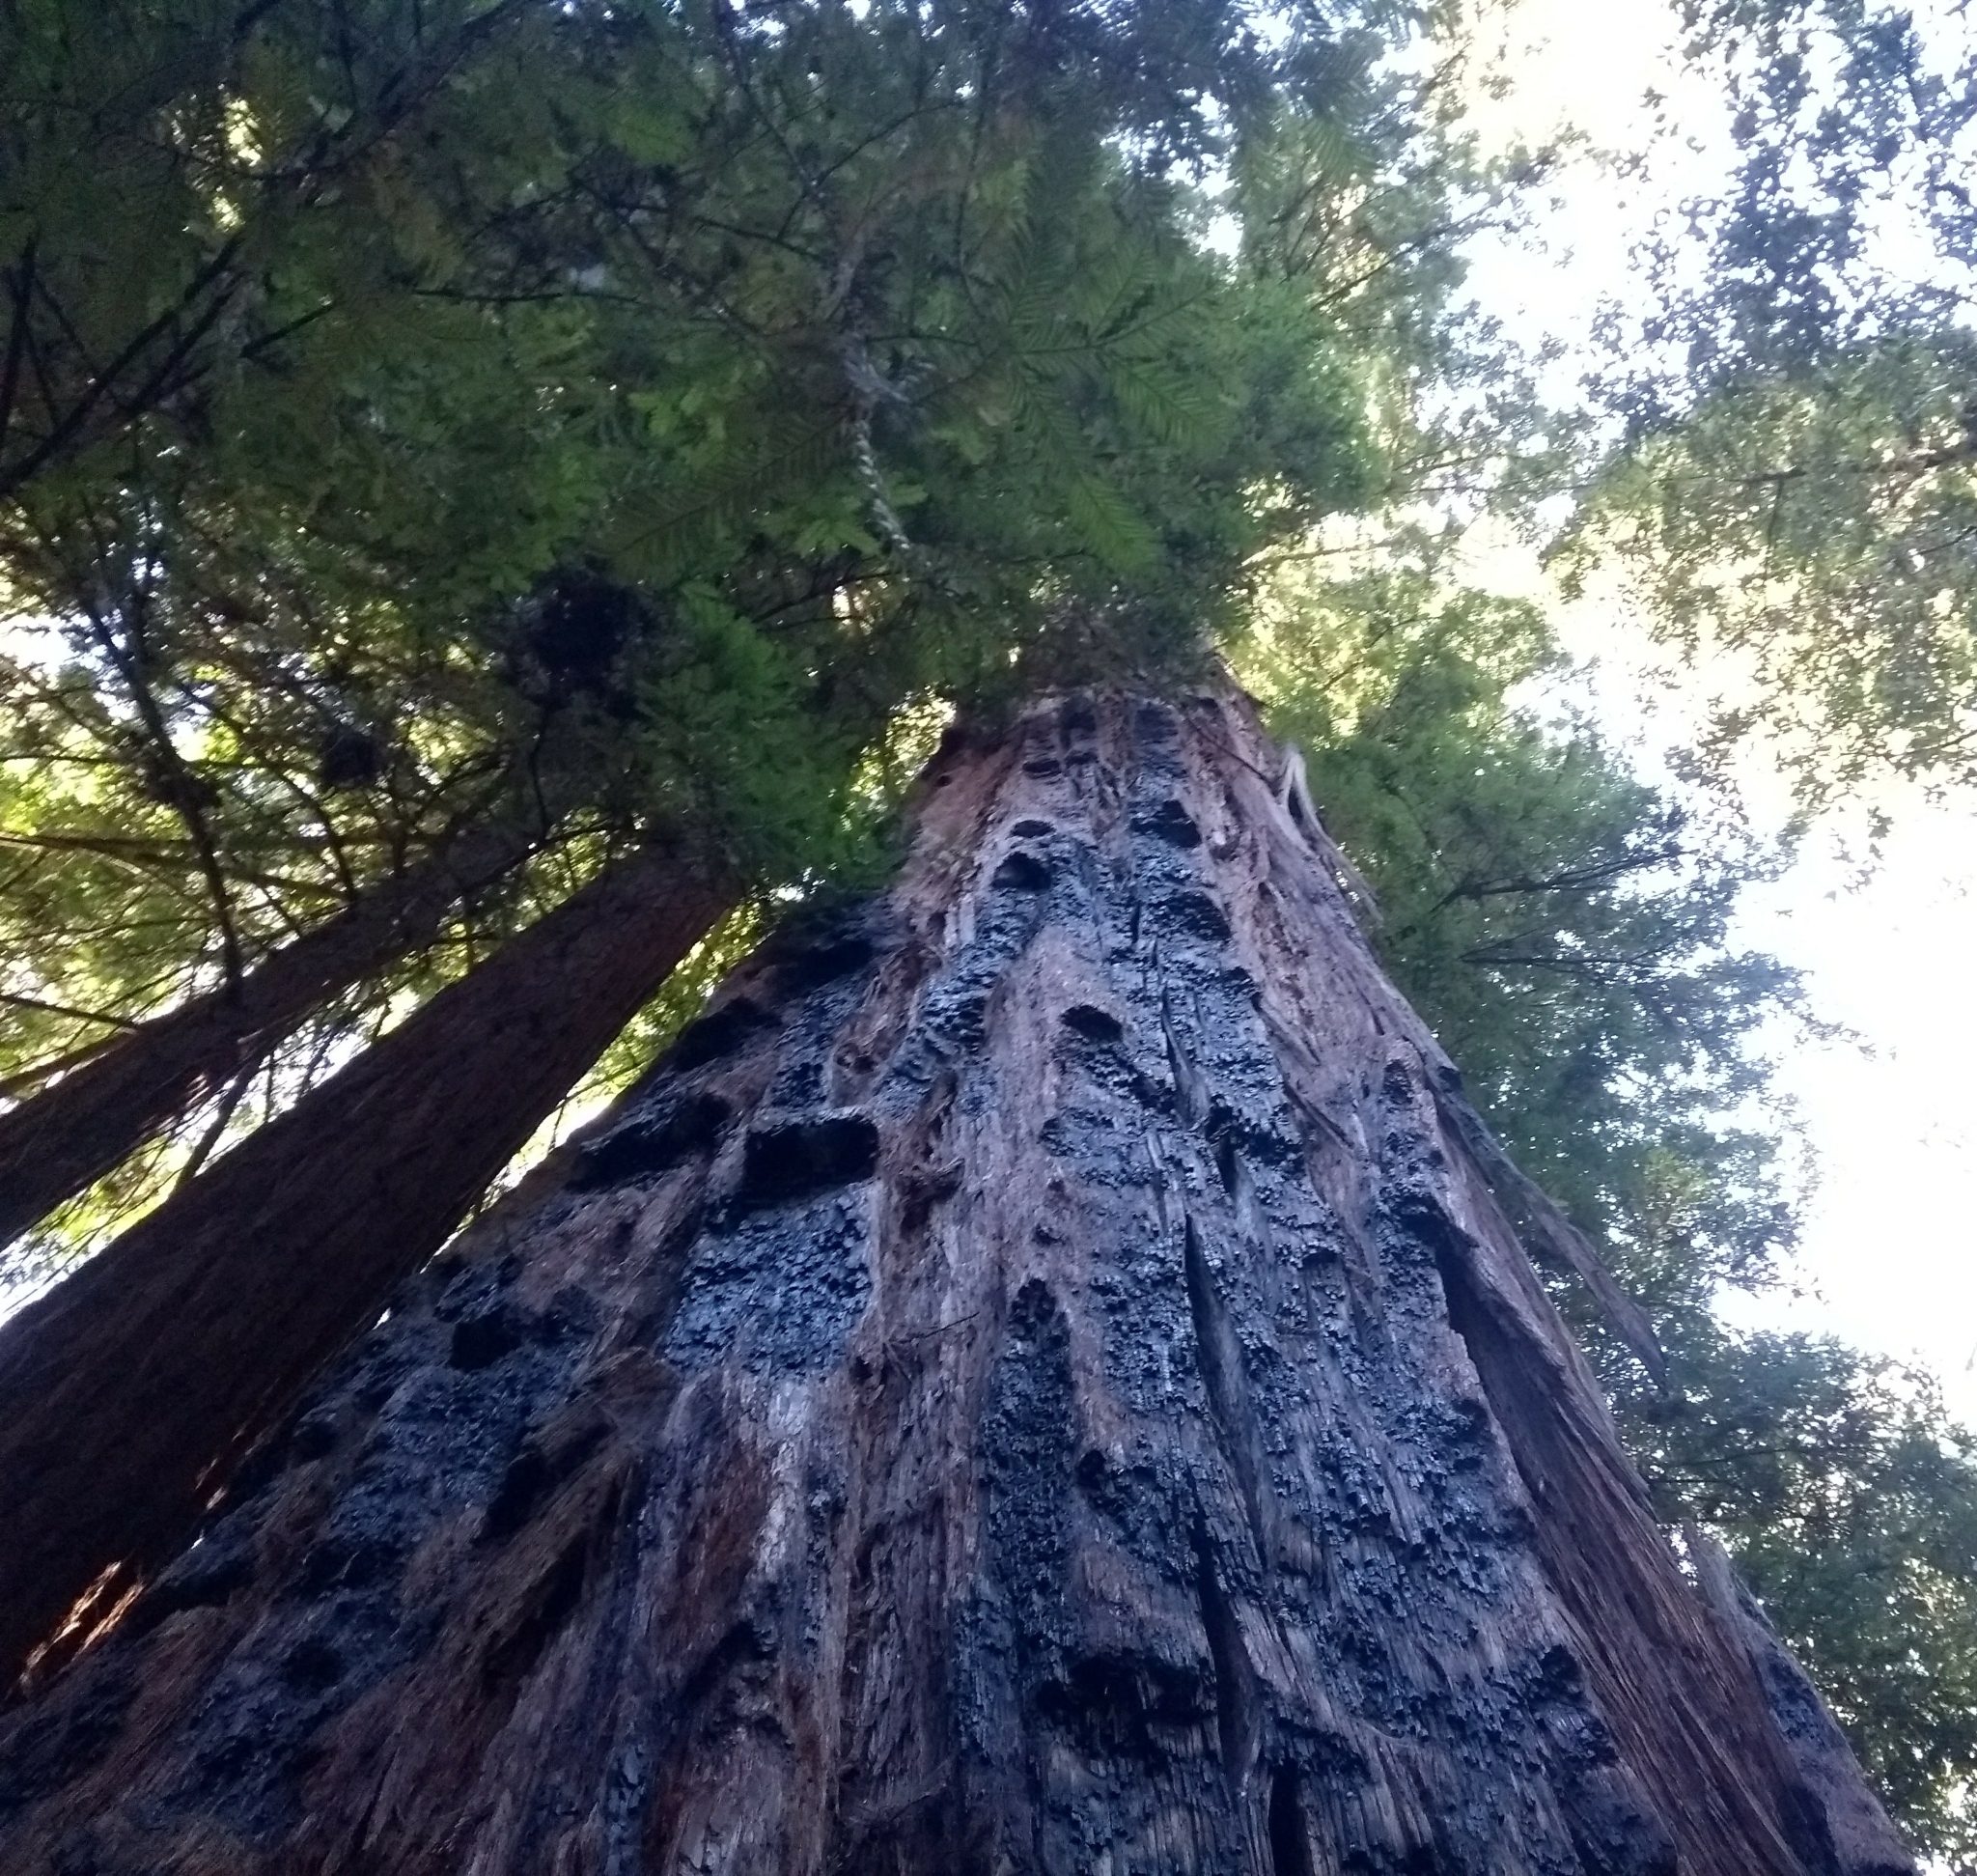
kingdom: Plantae
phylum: Tracheophyta
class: Pinopsida
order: Pinales
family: Cupressaceae
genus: Sequoia
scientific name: Sequoia sempervirens
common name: Coast redwood
